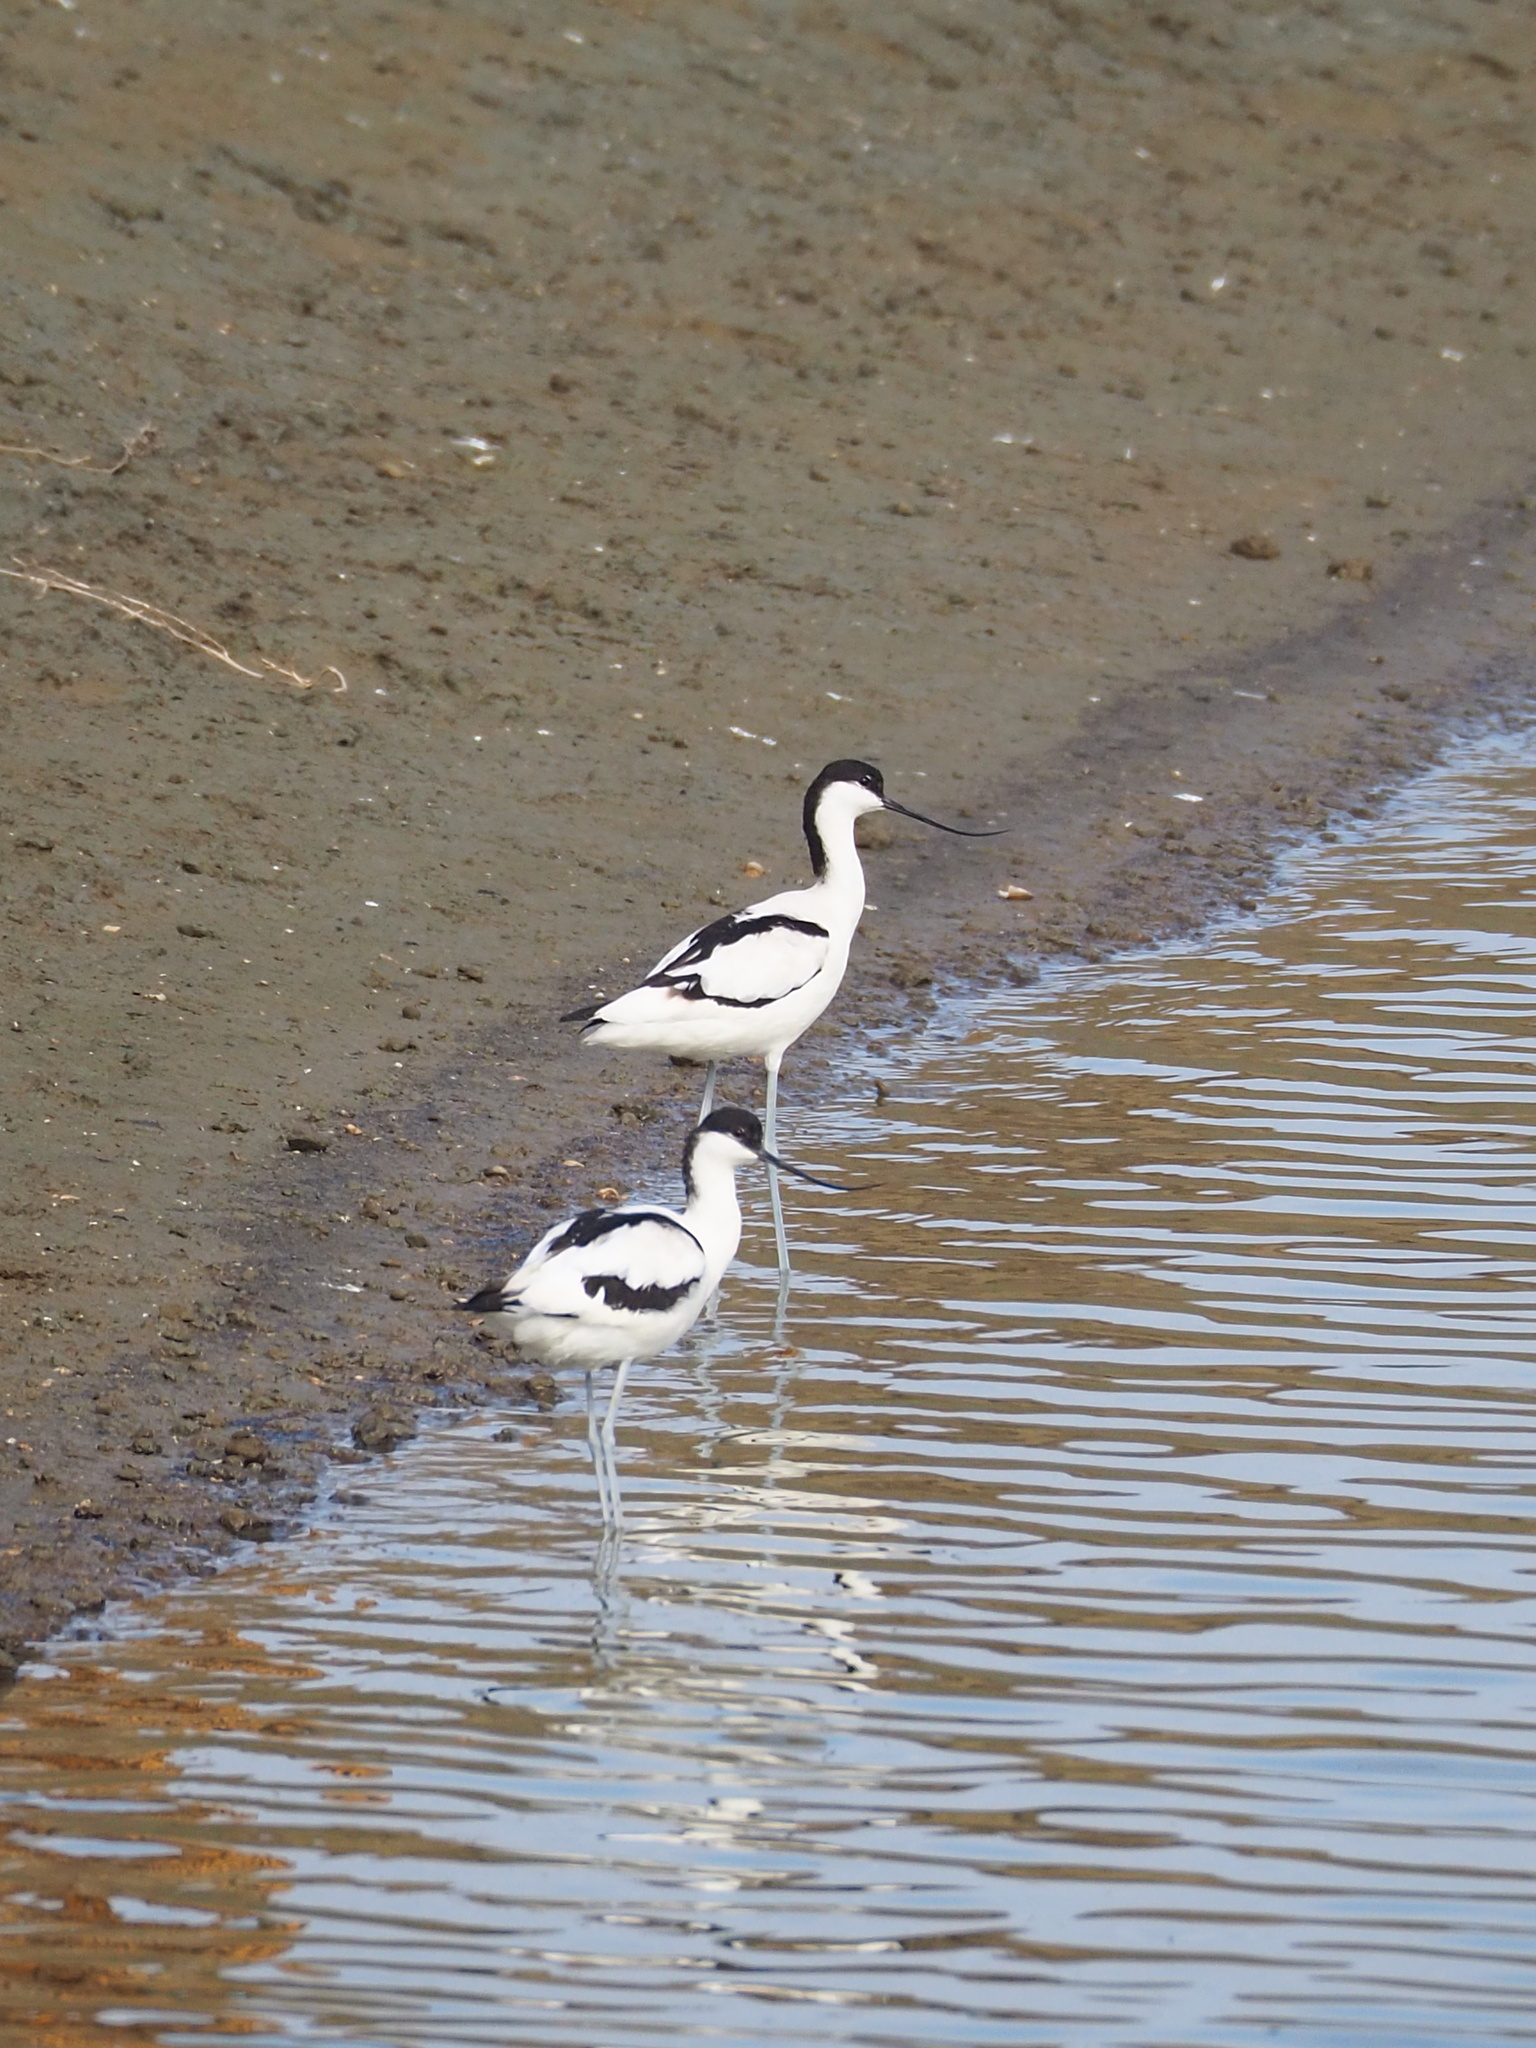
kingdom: Animalia
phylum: Chordata
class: Aves
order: Charadriiformes
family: Recurvirostridae
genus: Recurvirostra
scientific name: Recurvirostra avosetta
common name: Pied avocet
